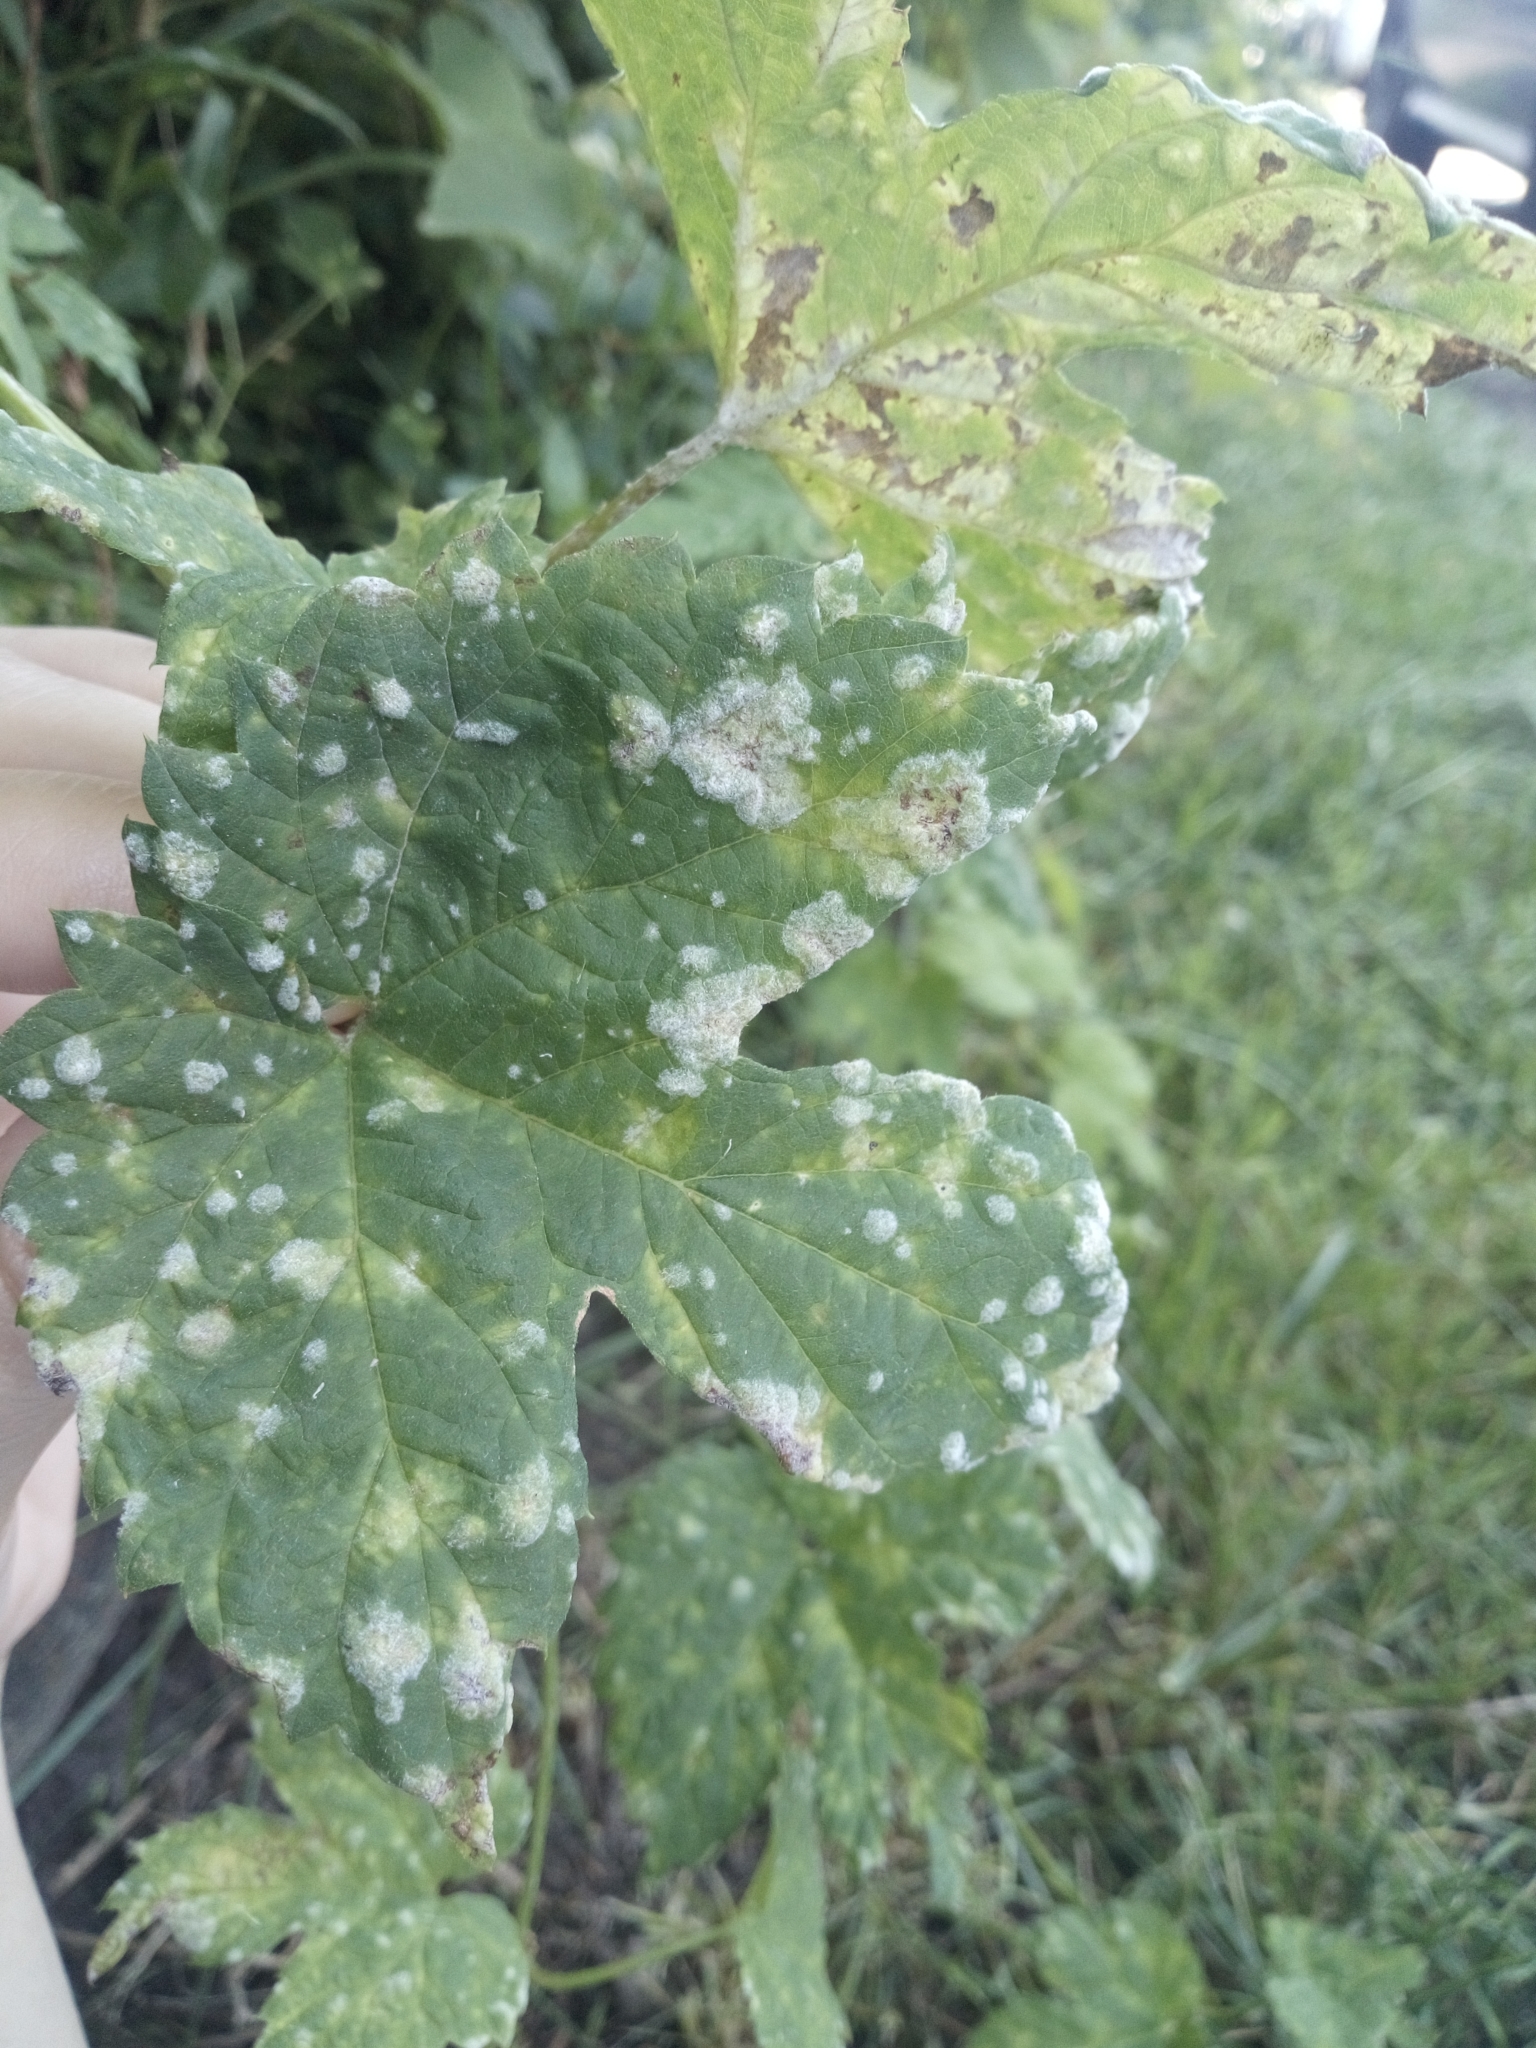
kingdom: Fungi
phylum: Ascomycota
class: Leotiomycetes
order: Helotiales
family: Erysiphaceae
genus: Podosphaera
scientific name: Podosphaera macularis
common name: Powdery mildew
